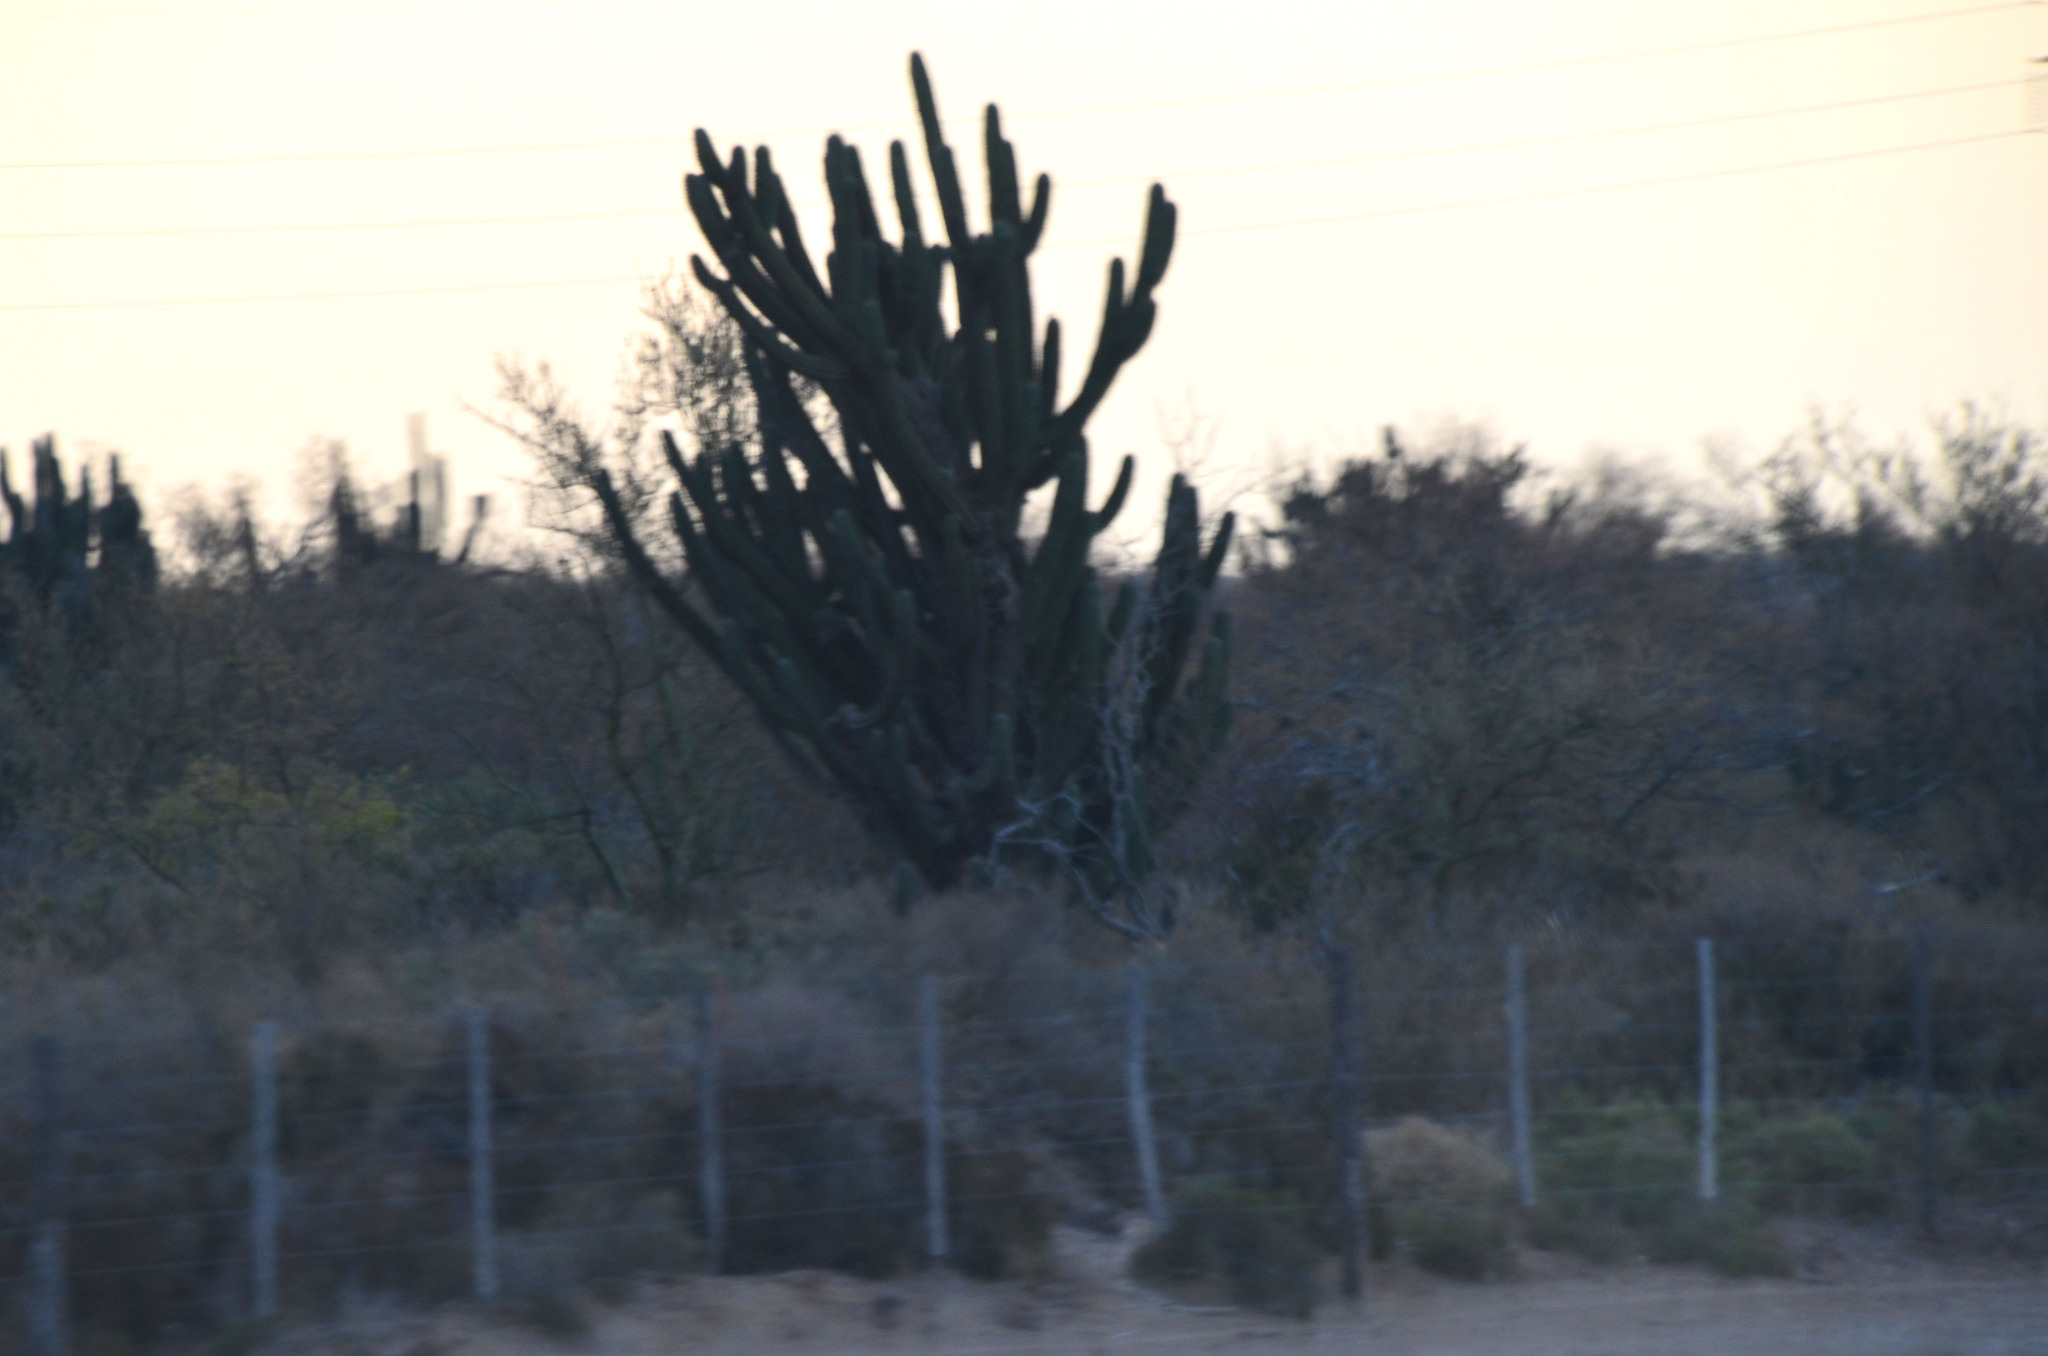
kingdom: Plantae
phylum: Tracheophyta
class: Magnoliopsida
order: Caryophyllales
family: Cactaceae
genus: Stetsonia
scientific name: Stetsonia coryne
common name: Toothpick cactus
